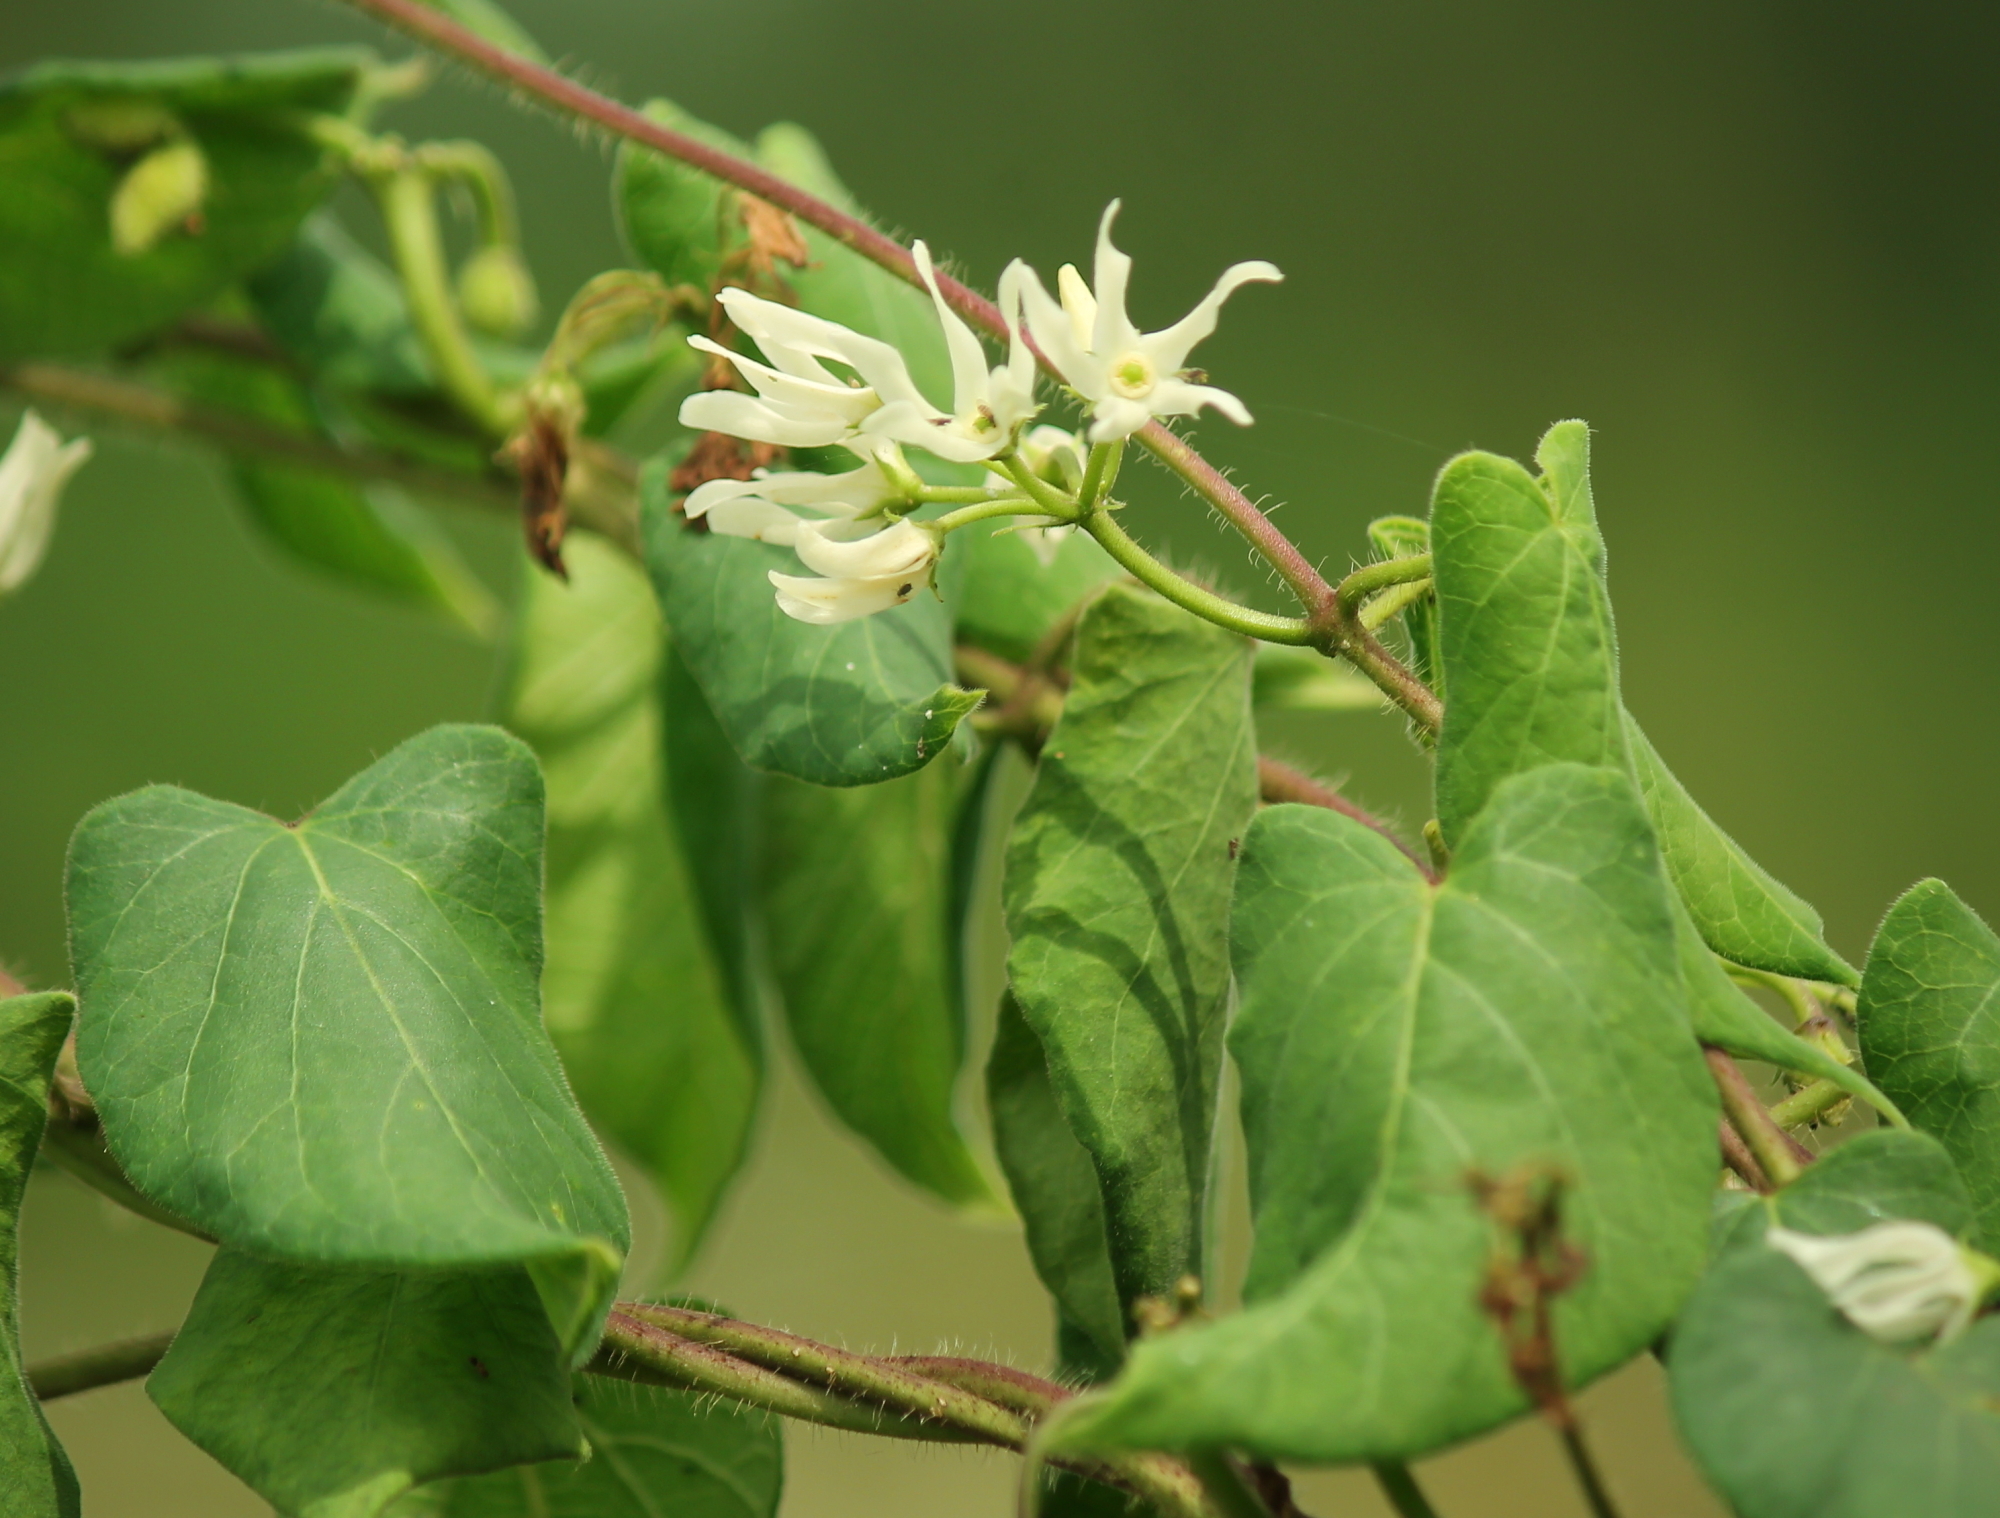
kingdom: Plantae
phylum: Tracheophyta
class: Magnoliopsida
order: Gentianales
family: Apocynaceae
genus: Matelea
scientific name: Matelea baldwyniana
